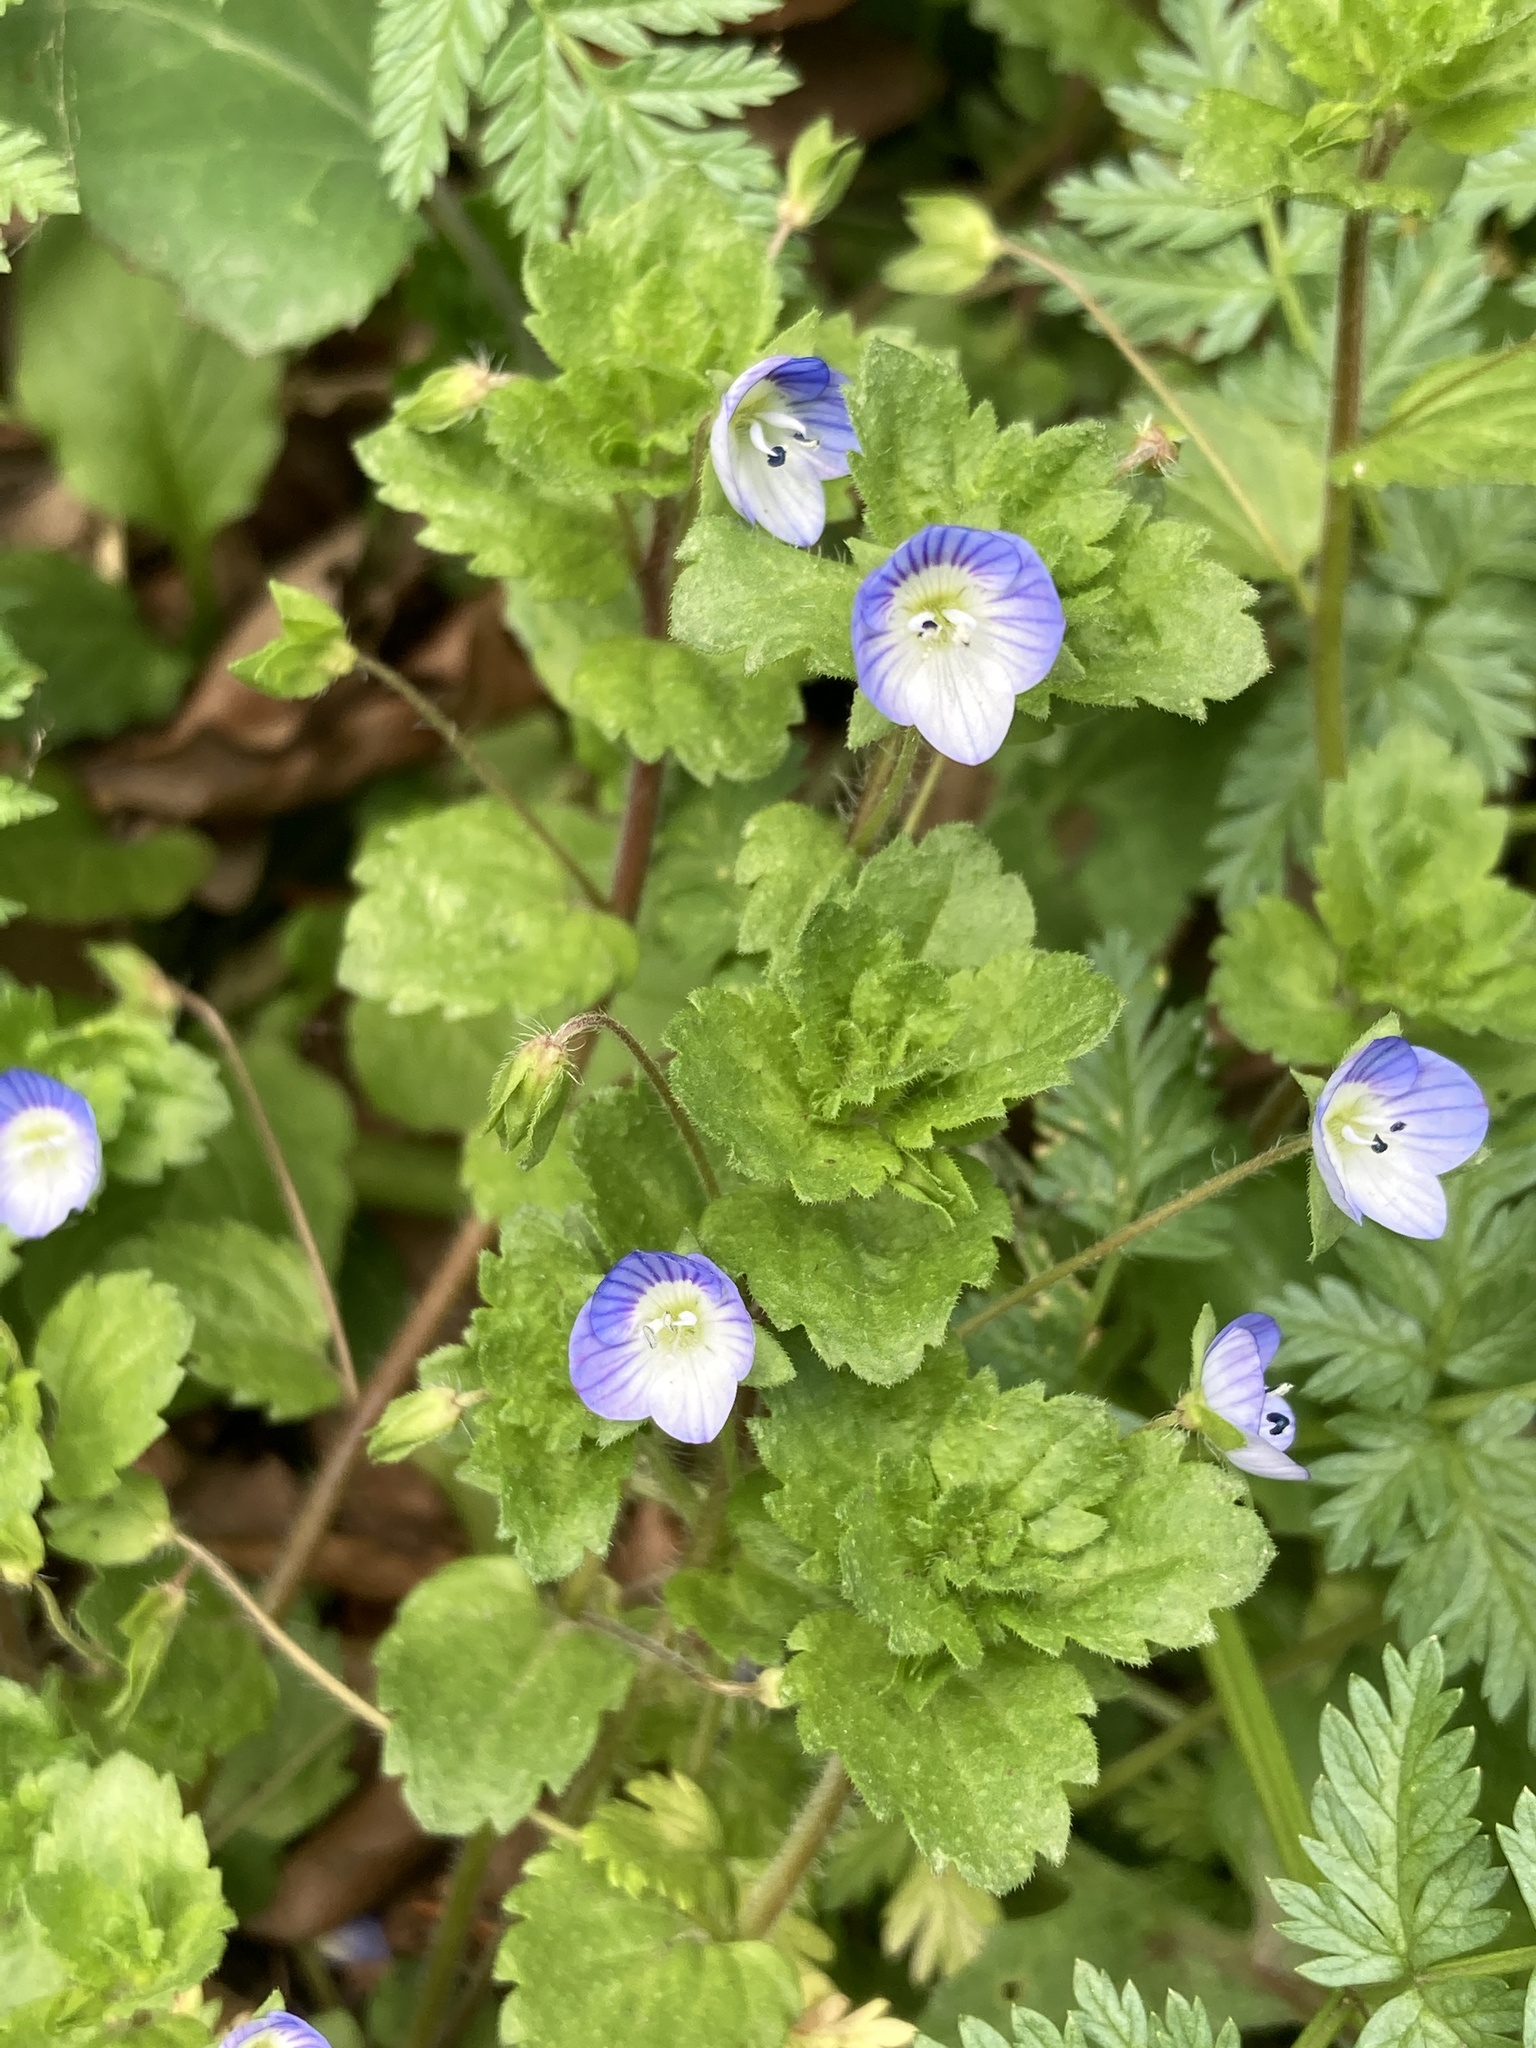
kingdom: Plantae
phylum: Tracheophyta
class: Magnoliopsida
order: Lamiales
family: Plantaginaceae
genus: Veronica
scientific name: Veronica persica
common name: Common field-speedwell
